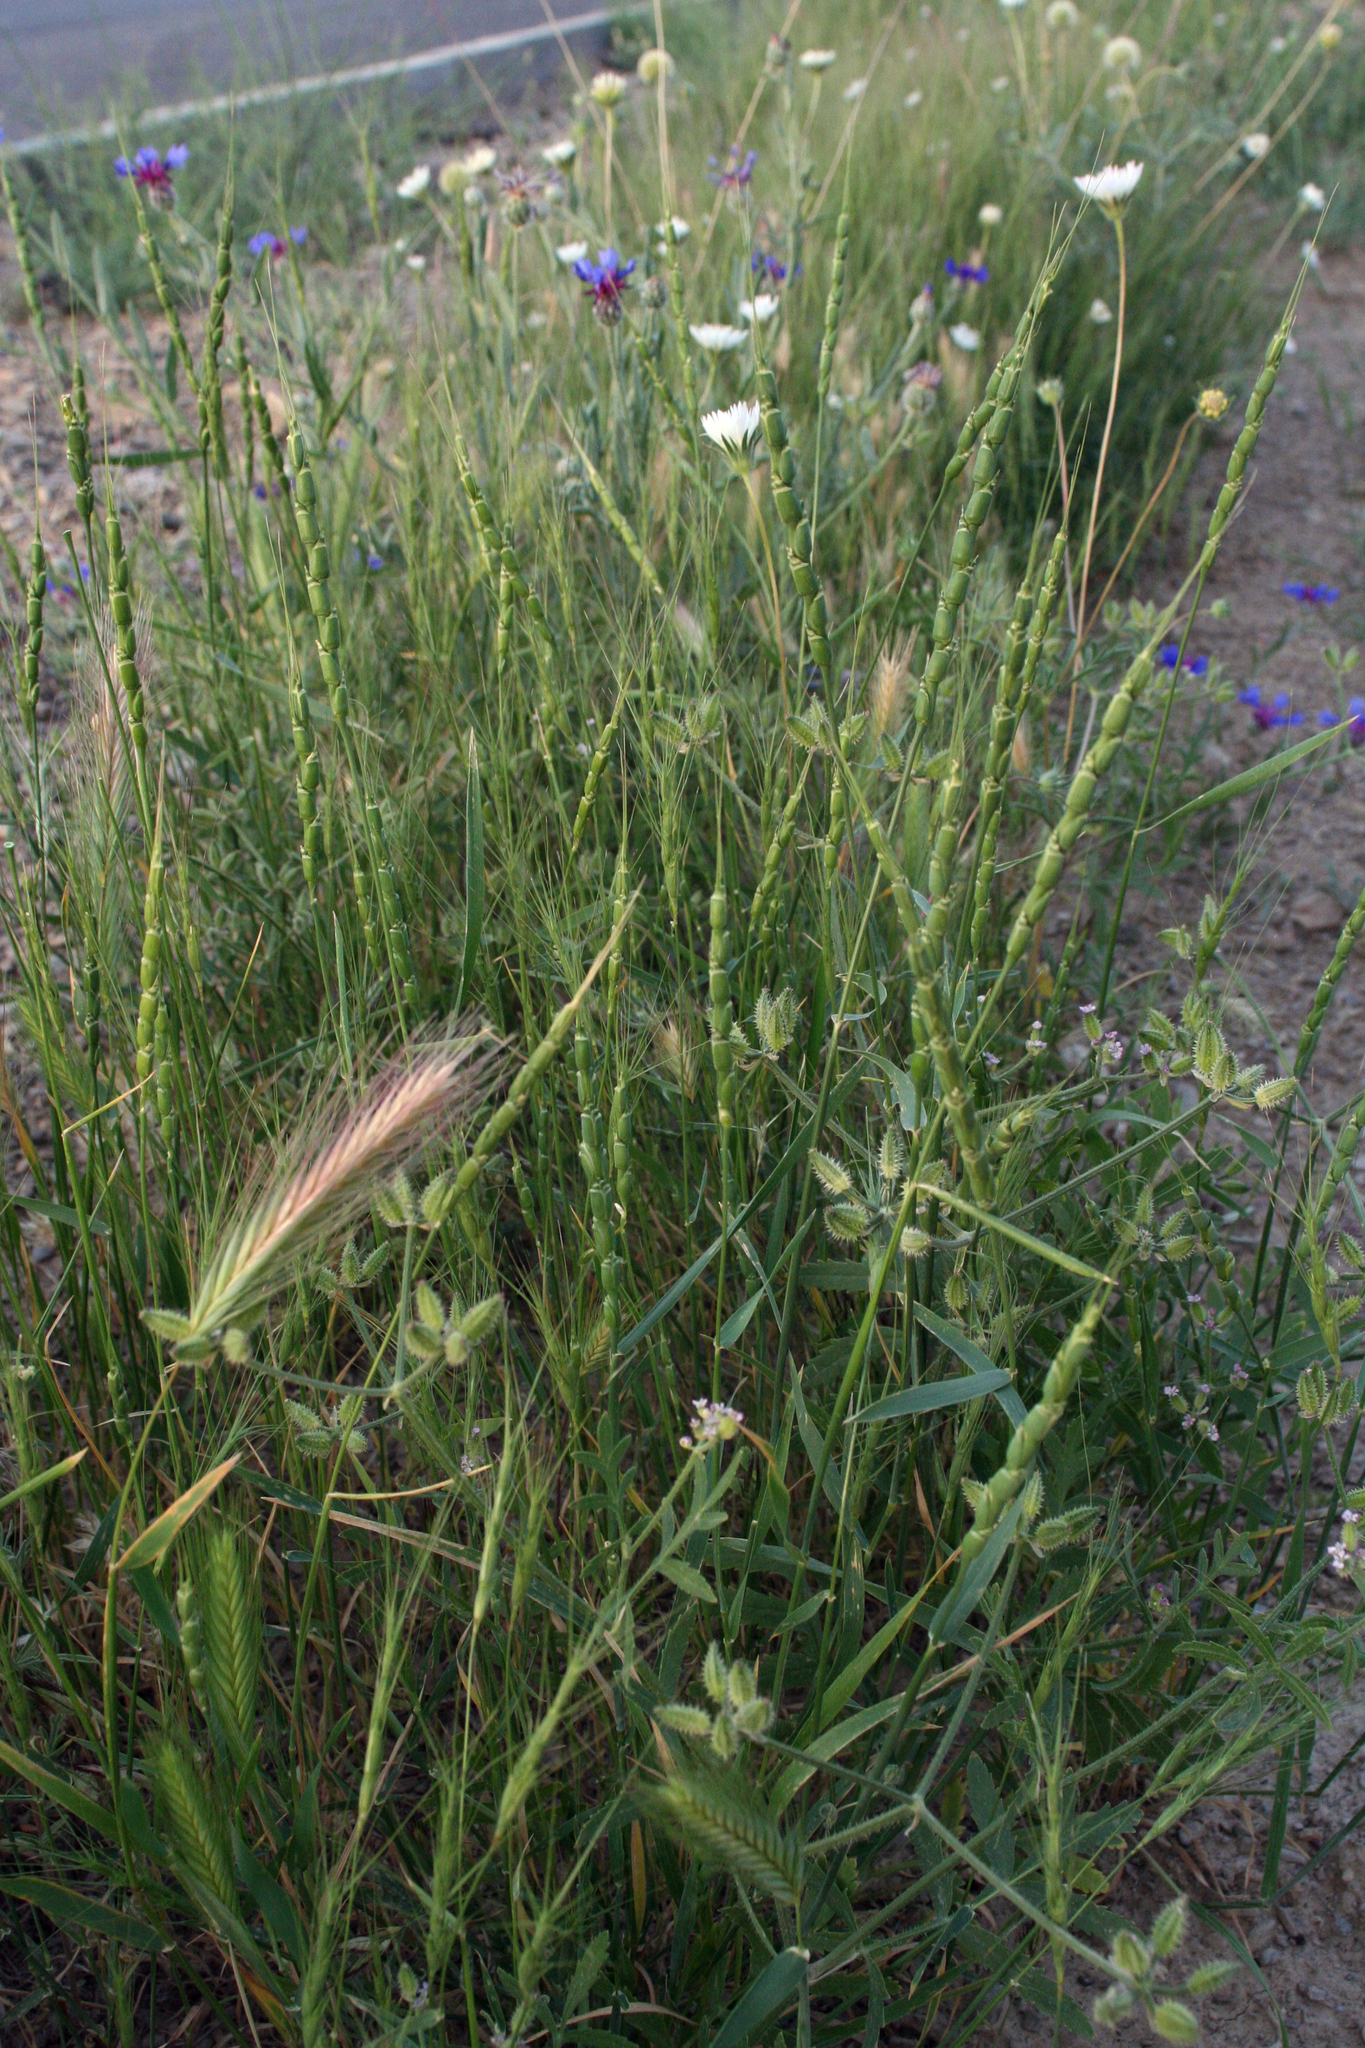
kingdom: Plantae
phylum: Tracheophyta
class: Liliopsida
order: Poales
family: Poaceae
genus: Aegilops
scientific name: Aegilops tauschii
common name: Rough-spike hard grass
